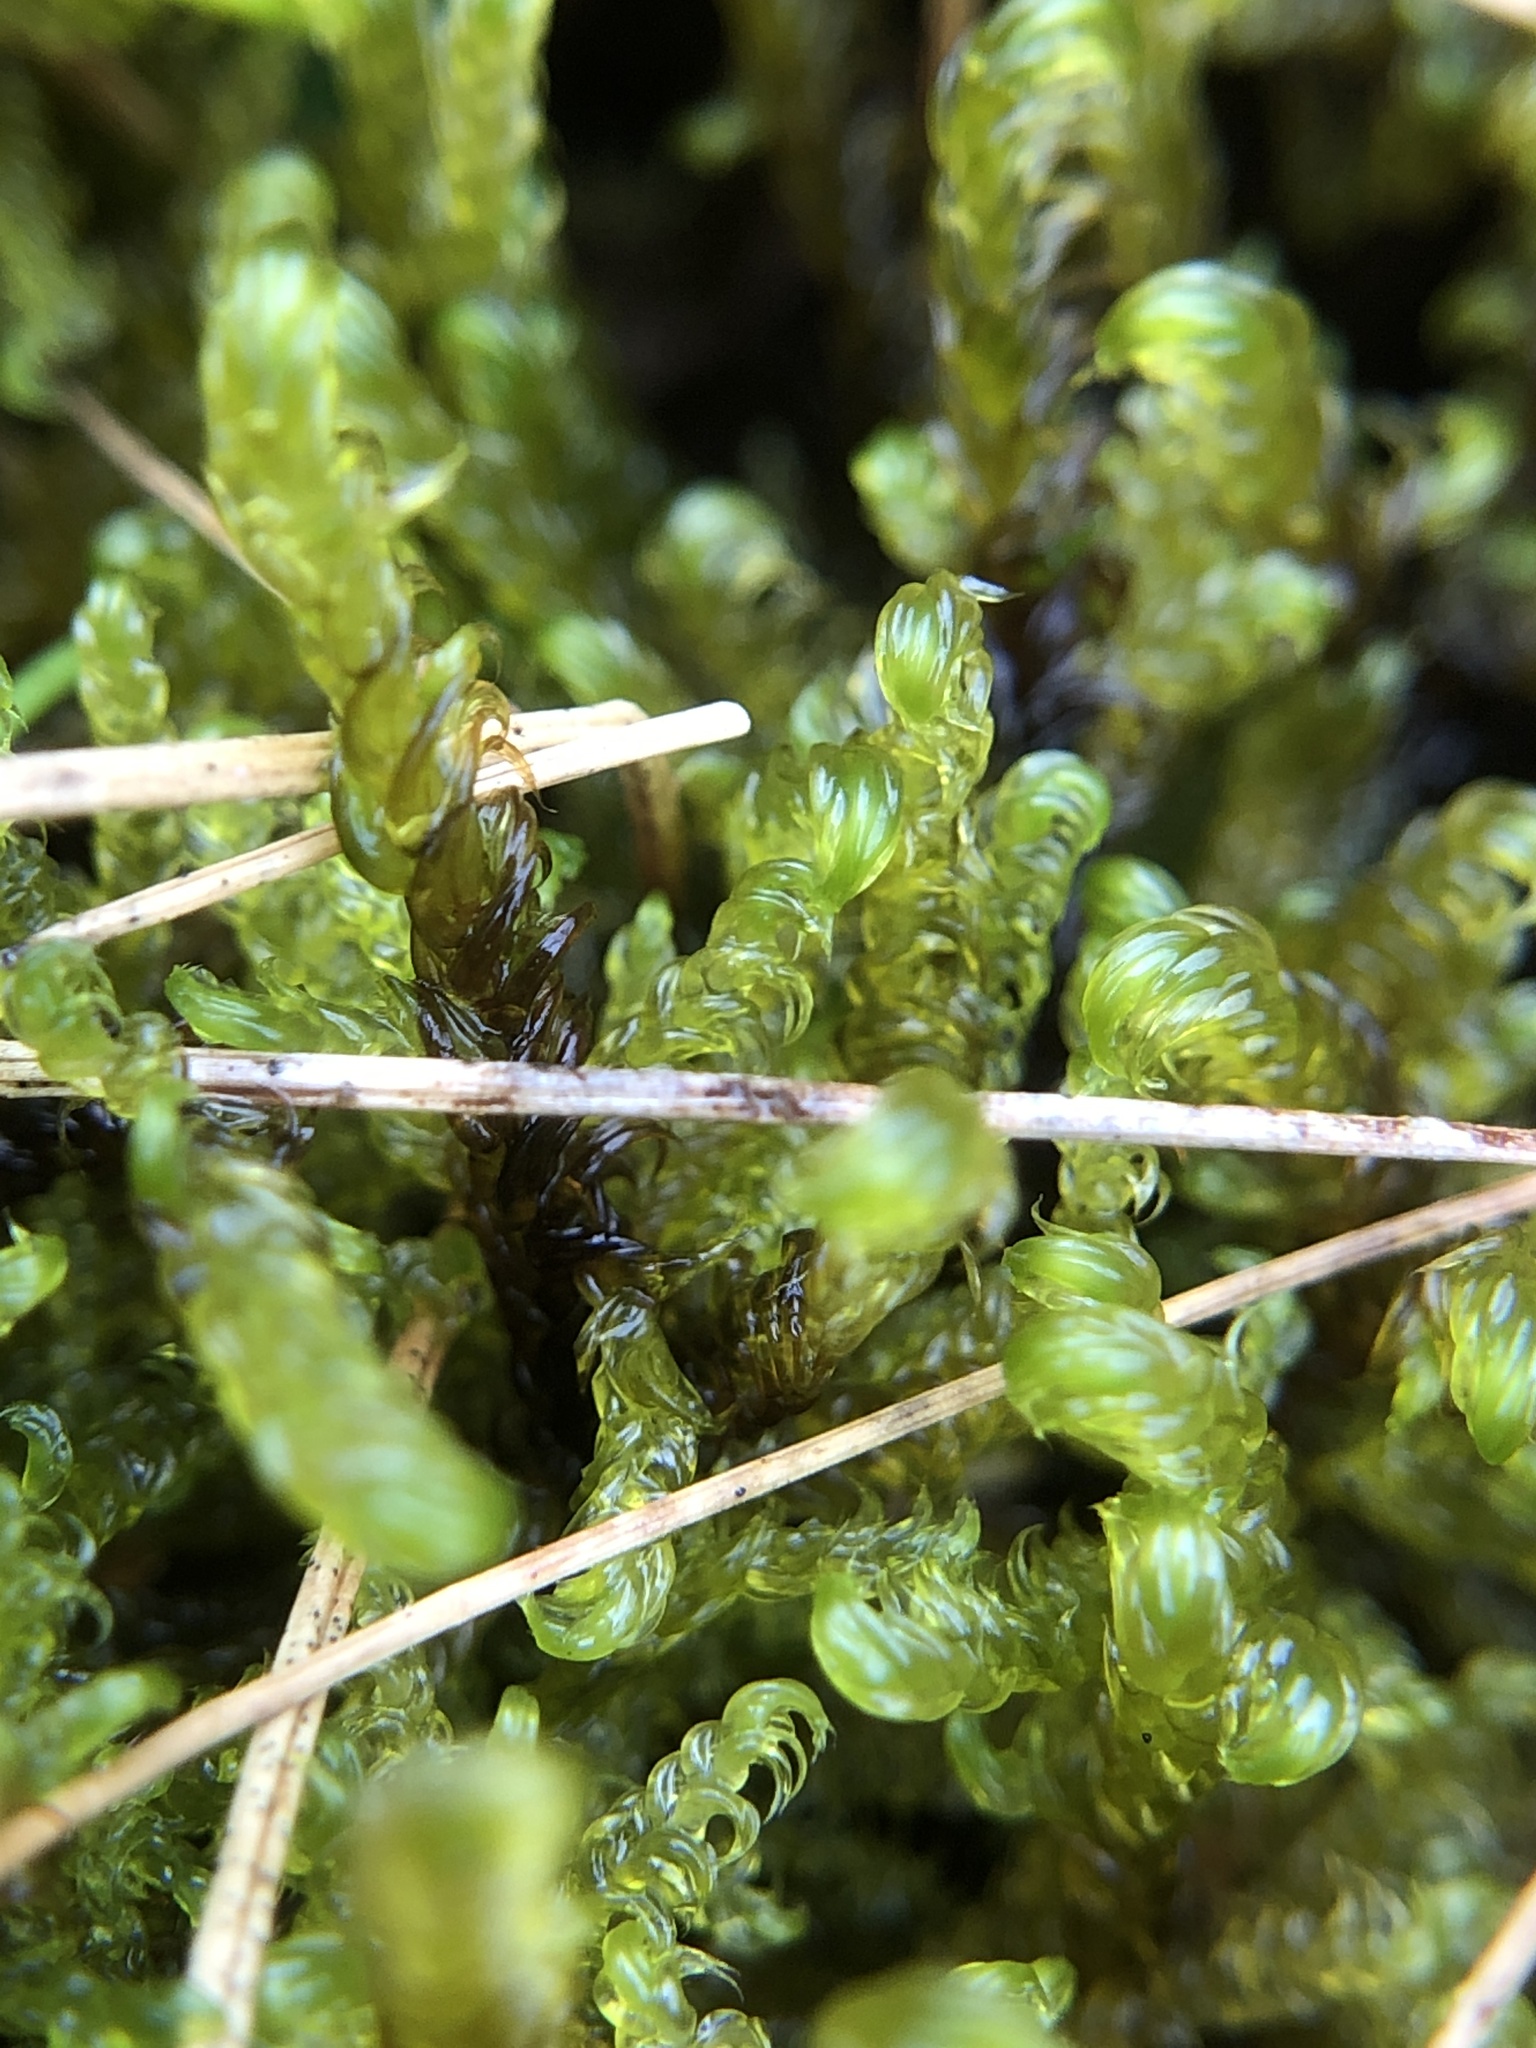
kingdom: Plantae
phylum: Bryophyta
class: Bryopsida
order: Hypnales
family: Scorpidiaceae
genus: Scorpidium
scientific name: Scorpidium cossonii
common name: Cosson's hook moss
